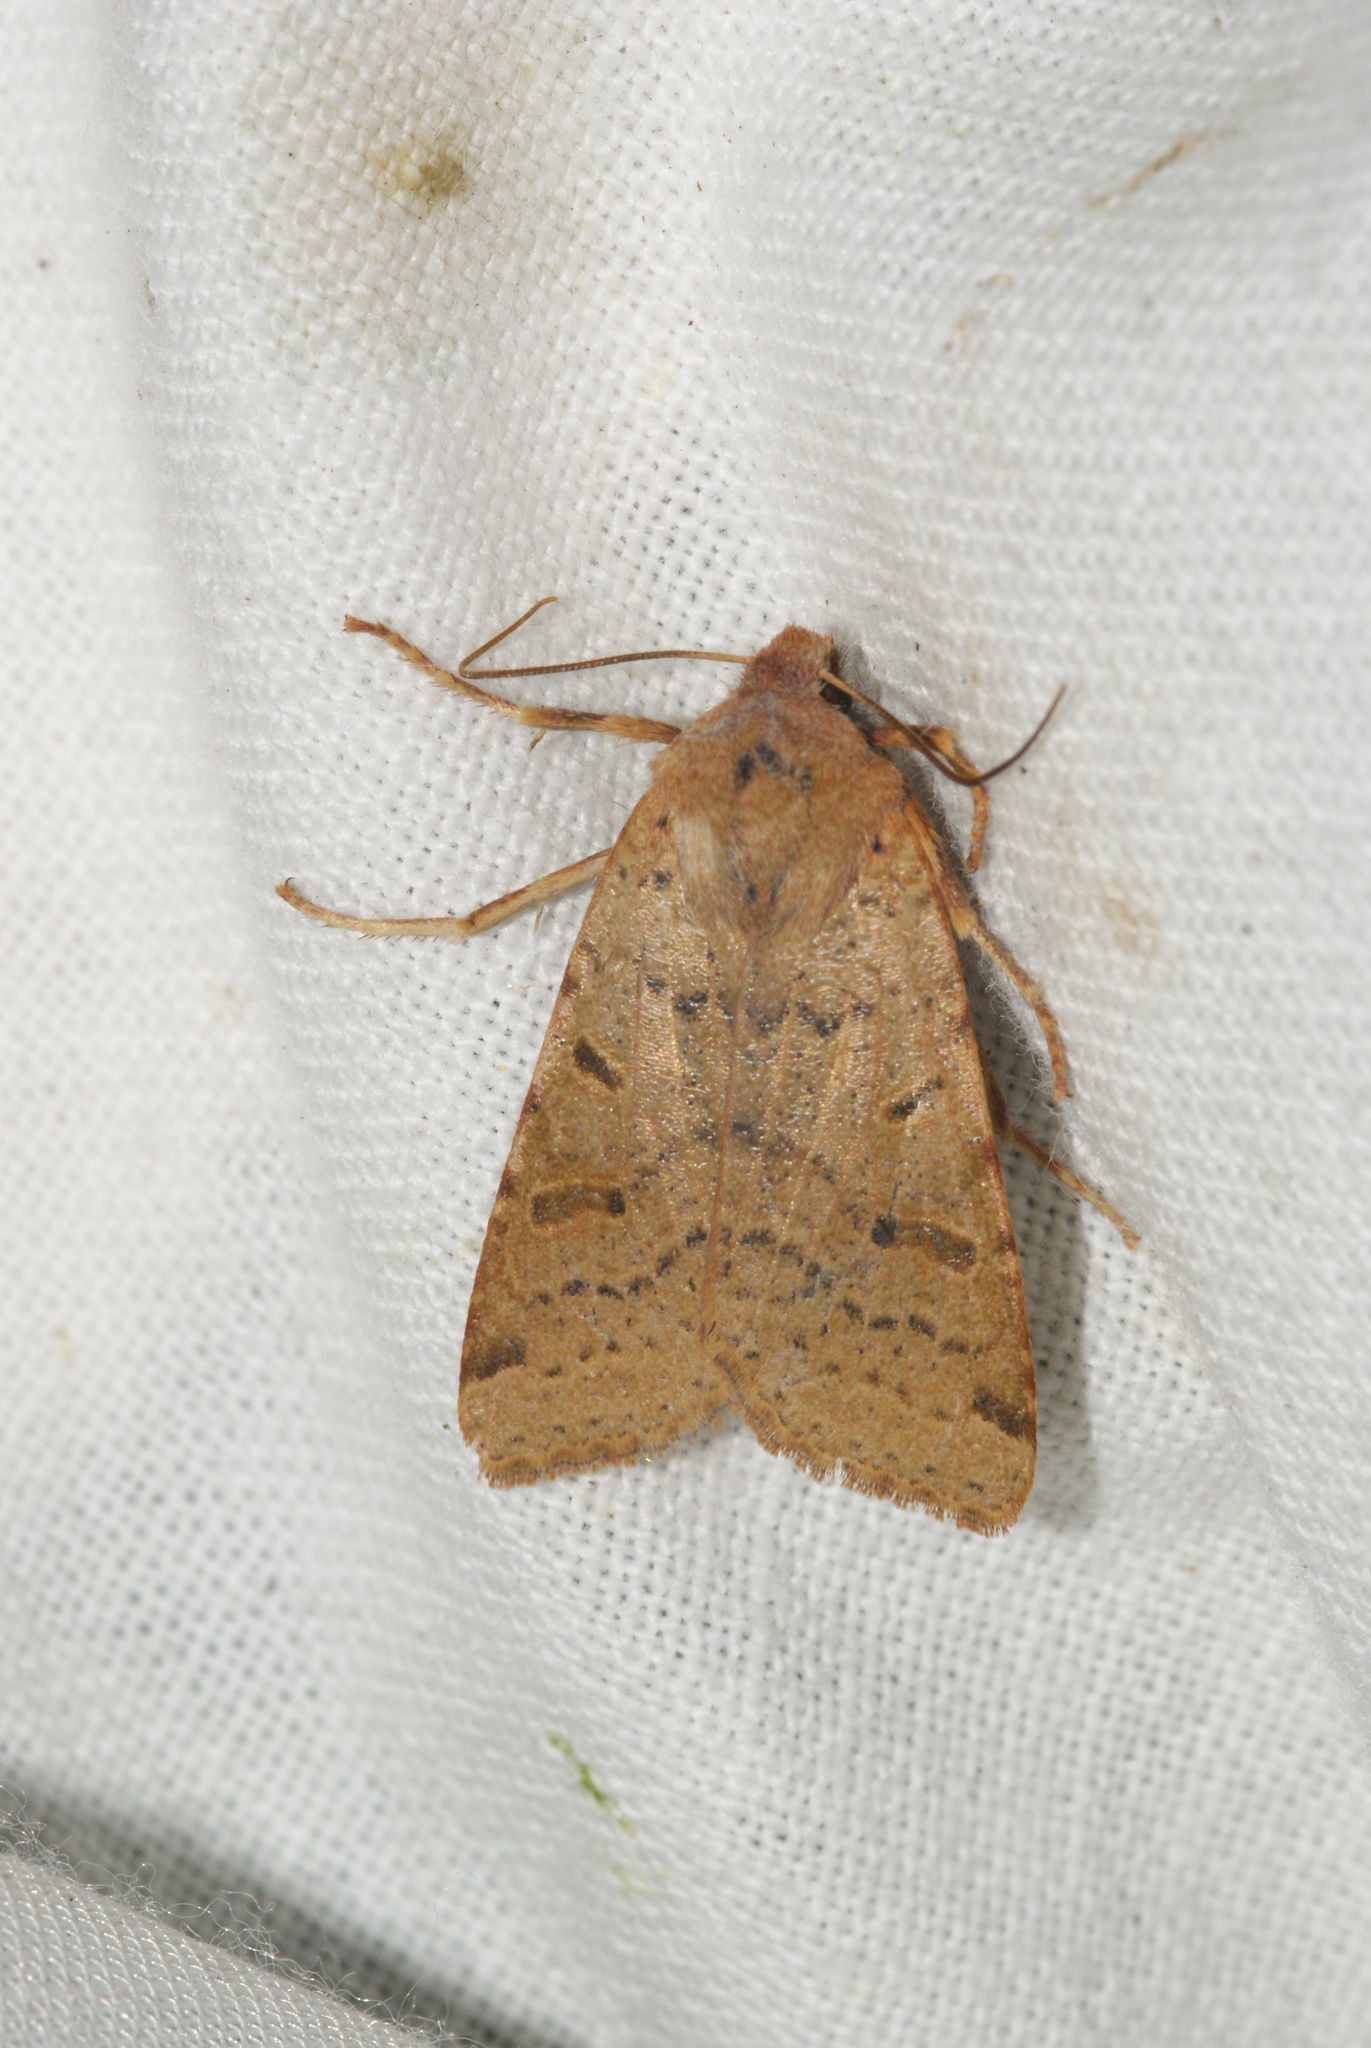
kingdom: Animalia
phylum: Arthropoda
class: Insecta
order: Lepidoptera
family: Noctuidae
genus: Agrochola
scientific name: Agrochola lychnidis
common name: Beaded chestnut
